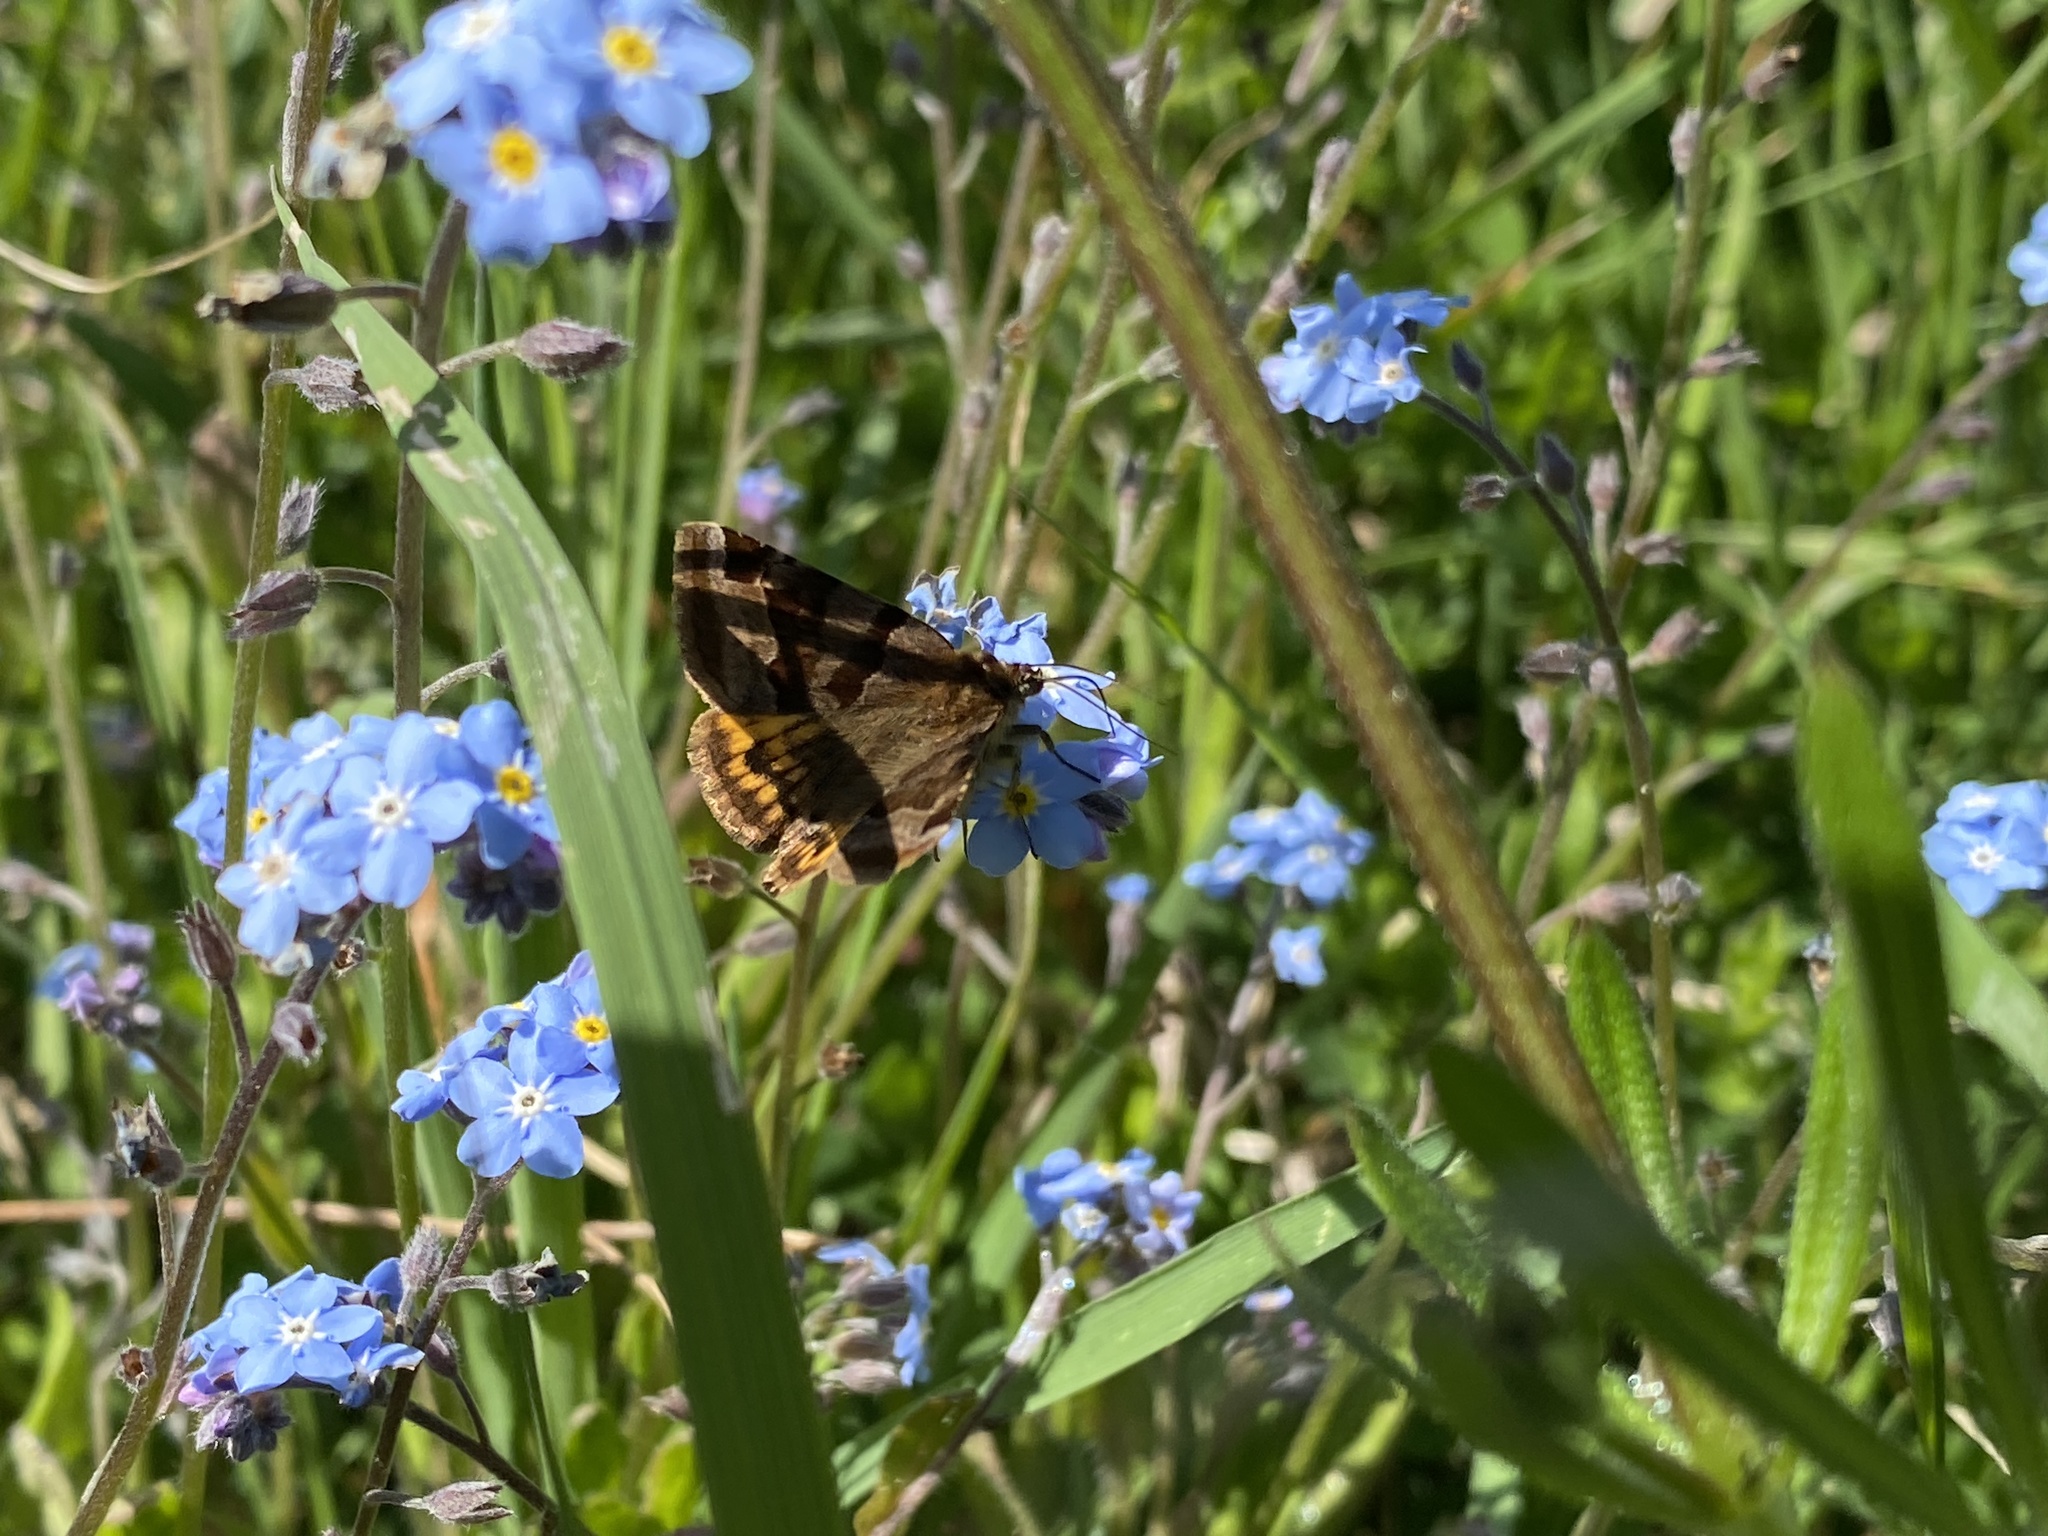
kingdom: Animalia
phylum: Arthropoda
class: Insecta
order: Lepidoptera
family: Erebidae
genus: Euclidia
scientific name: Euclidia glyphica
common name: Burnet companion
